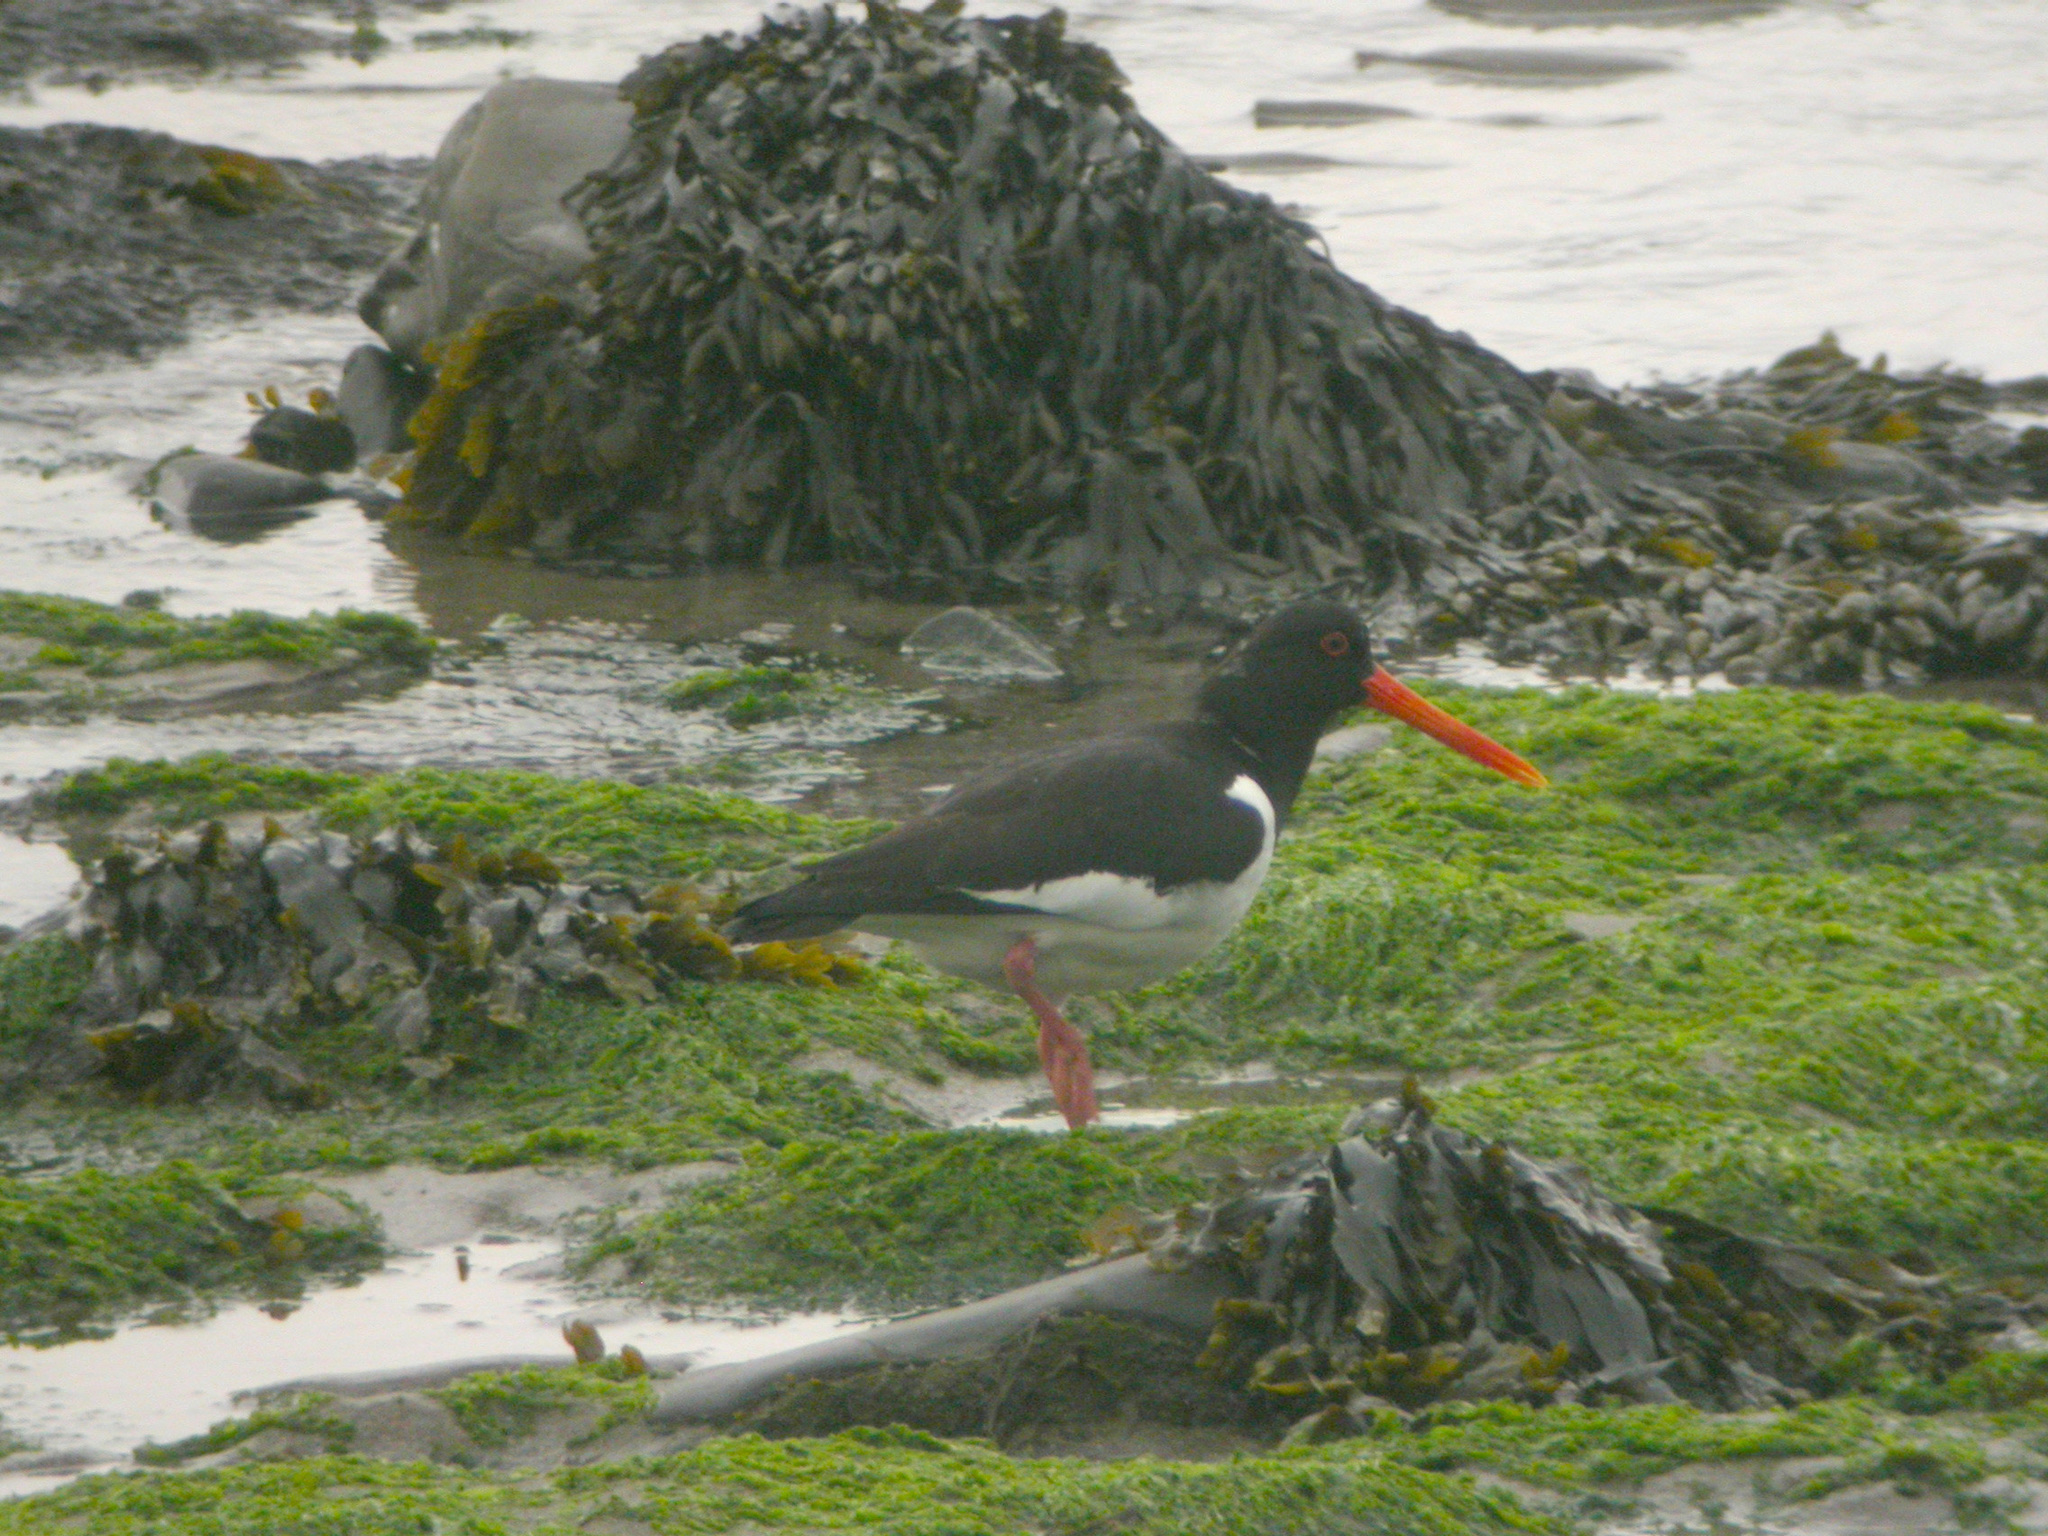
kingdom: Animalia
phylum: Chordata
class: Aves
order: Charadriiformes
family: Haematopodidae
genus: Haematopus
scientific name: Haematopus ostralegus
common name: Eurasian oystercatcher
